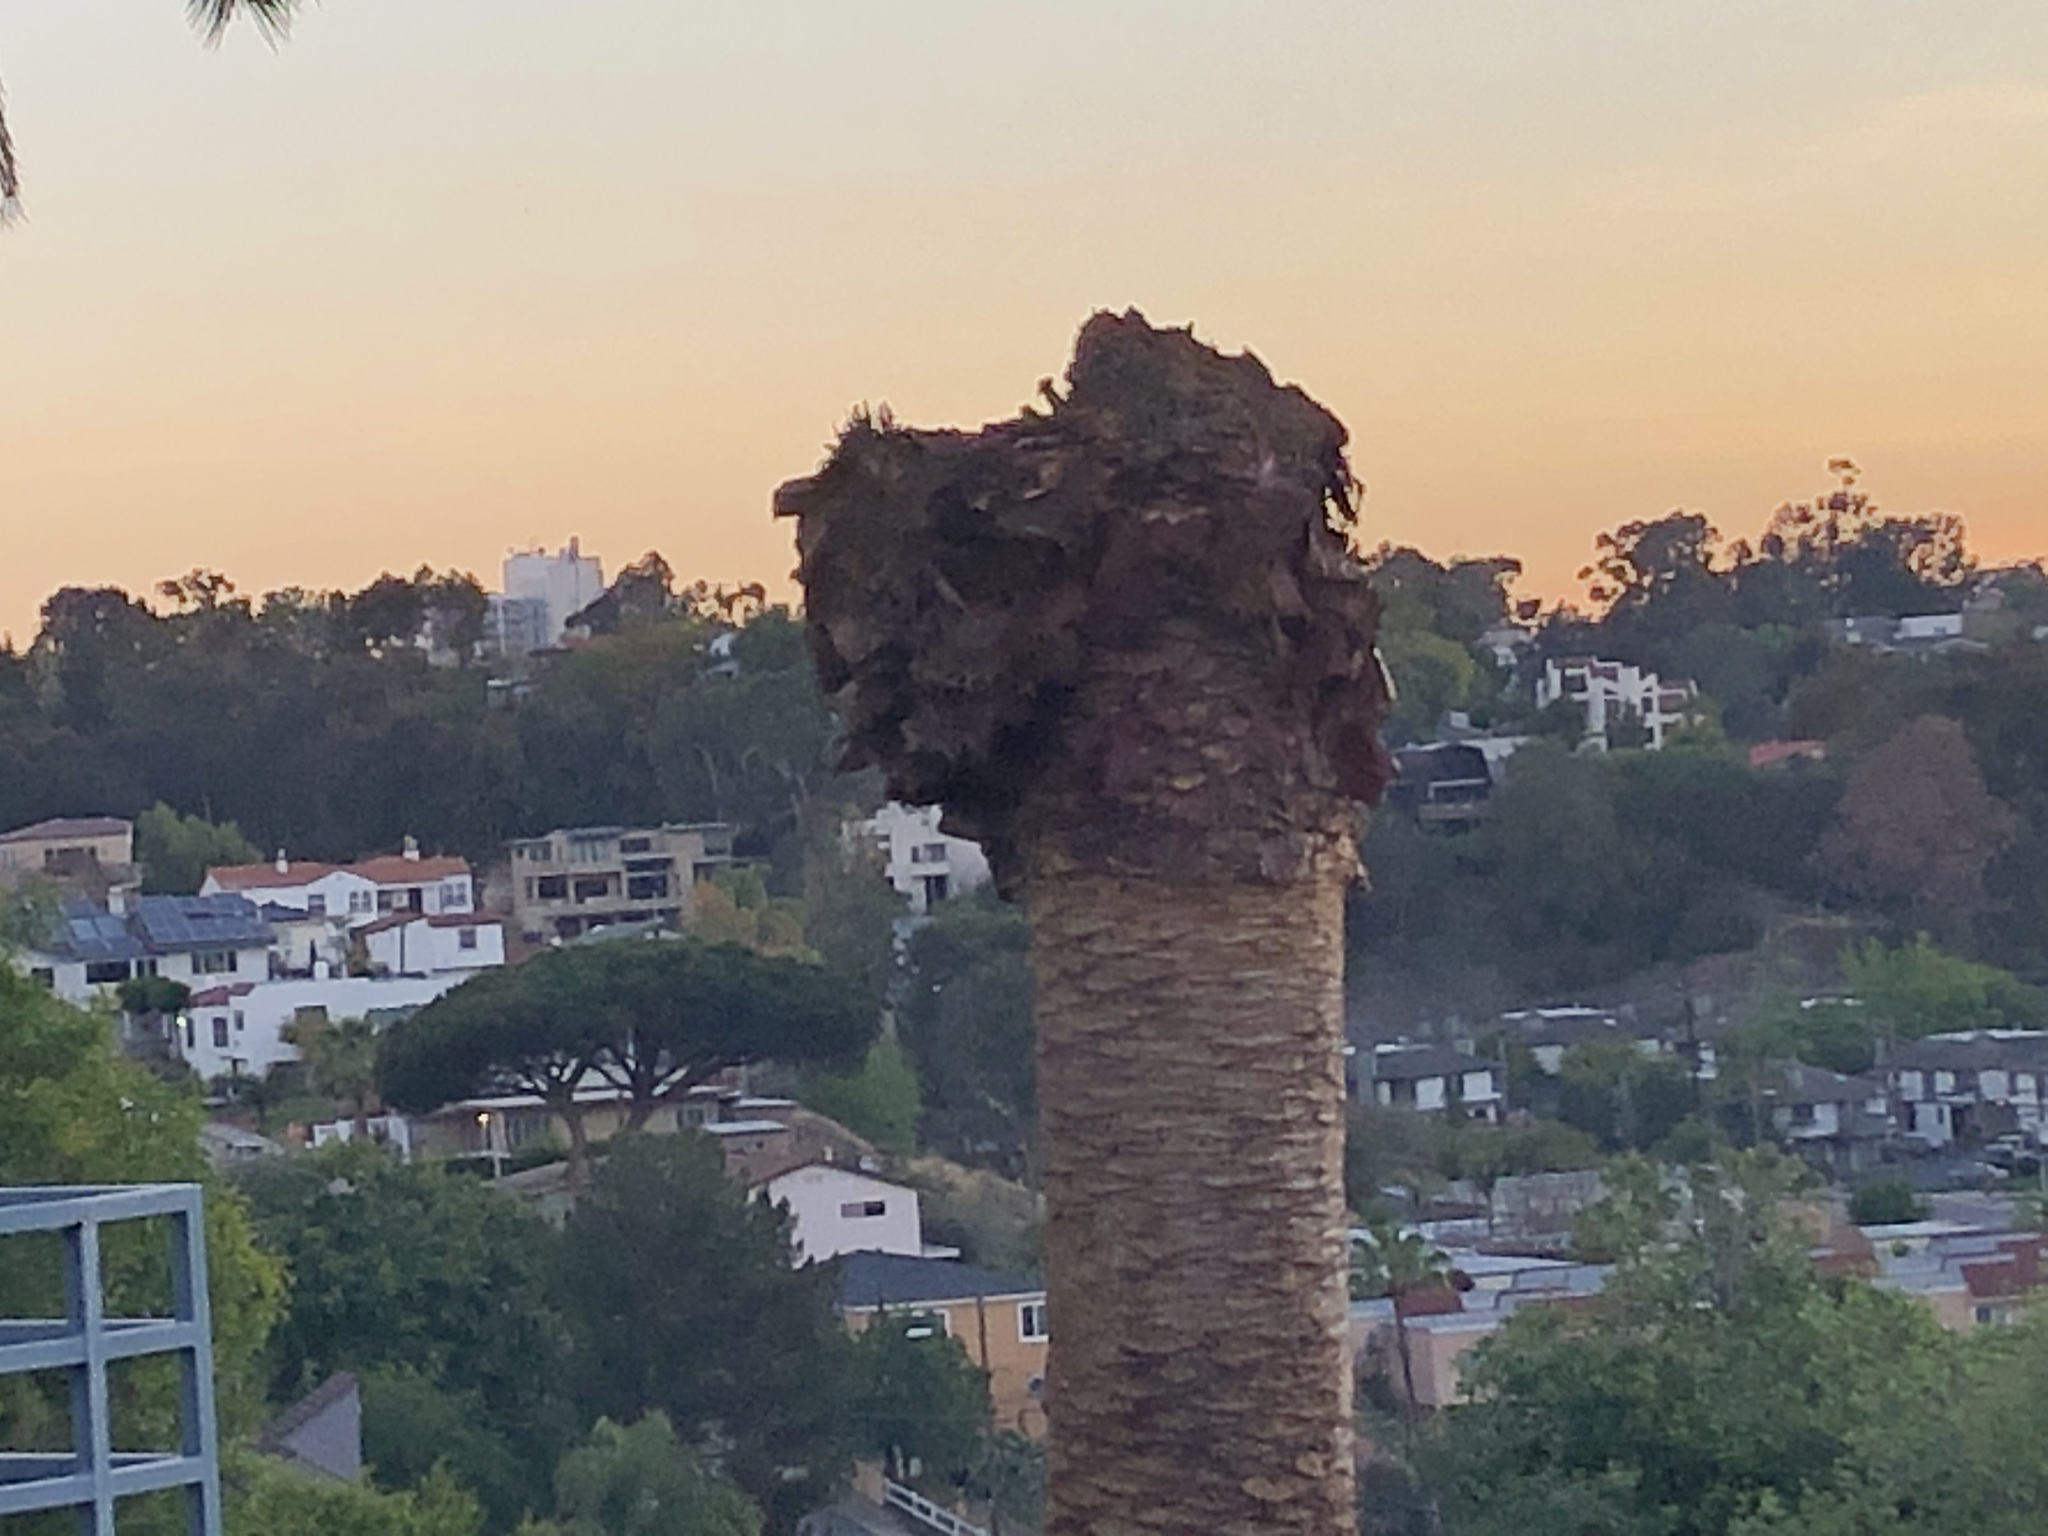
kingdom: Plantae
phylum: Tracheophyta
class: Liliopsida
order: Arecales
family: Arecaceae
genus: Phoenix
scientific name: Phoenix canariensis
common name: Canary island date palm
